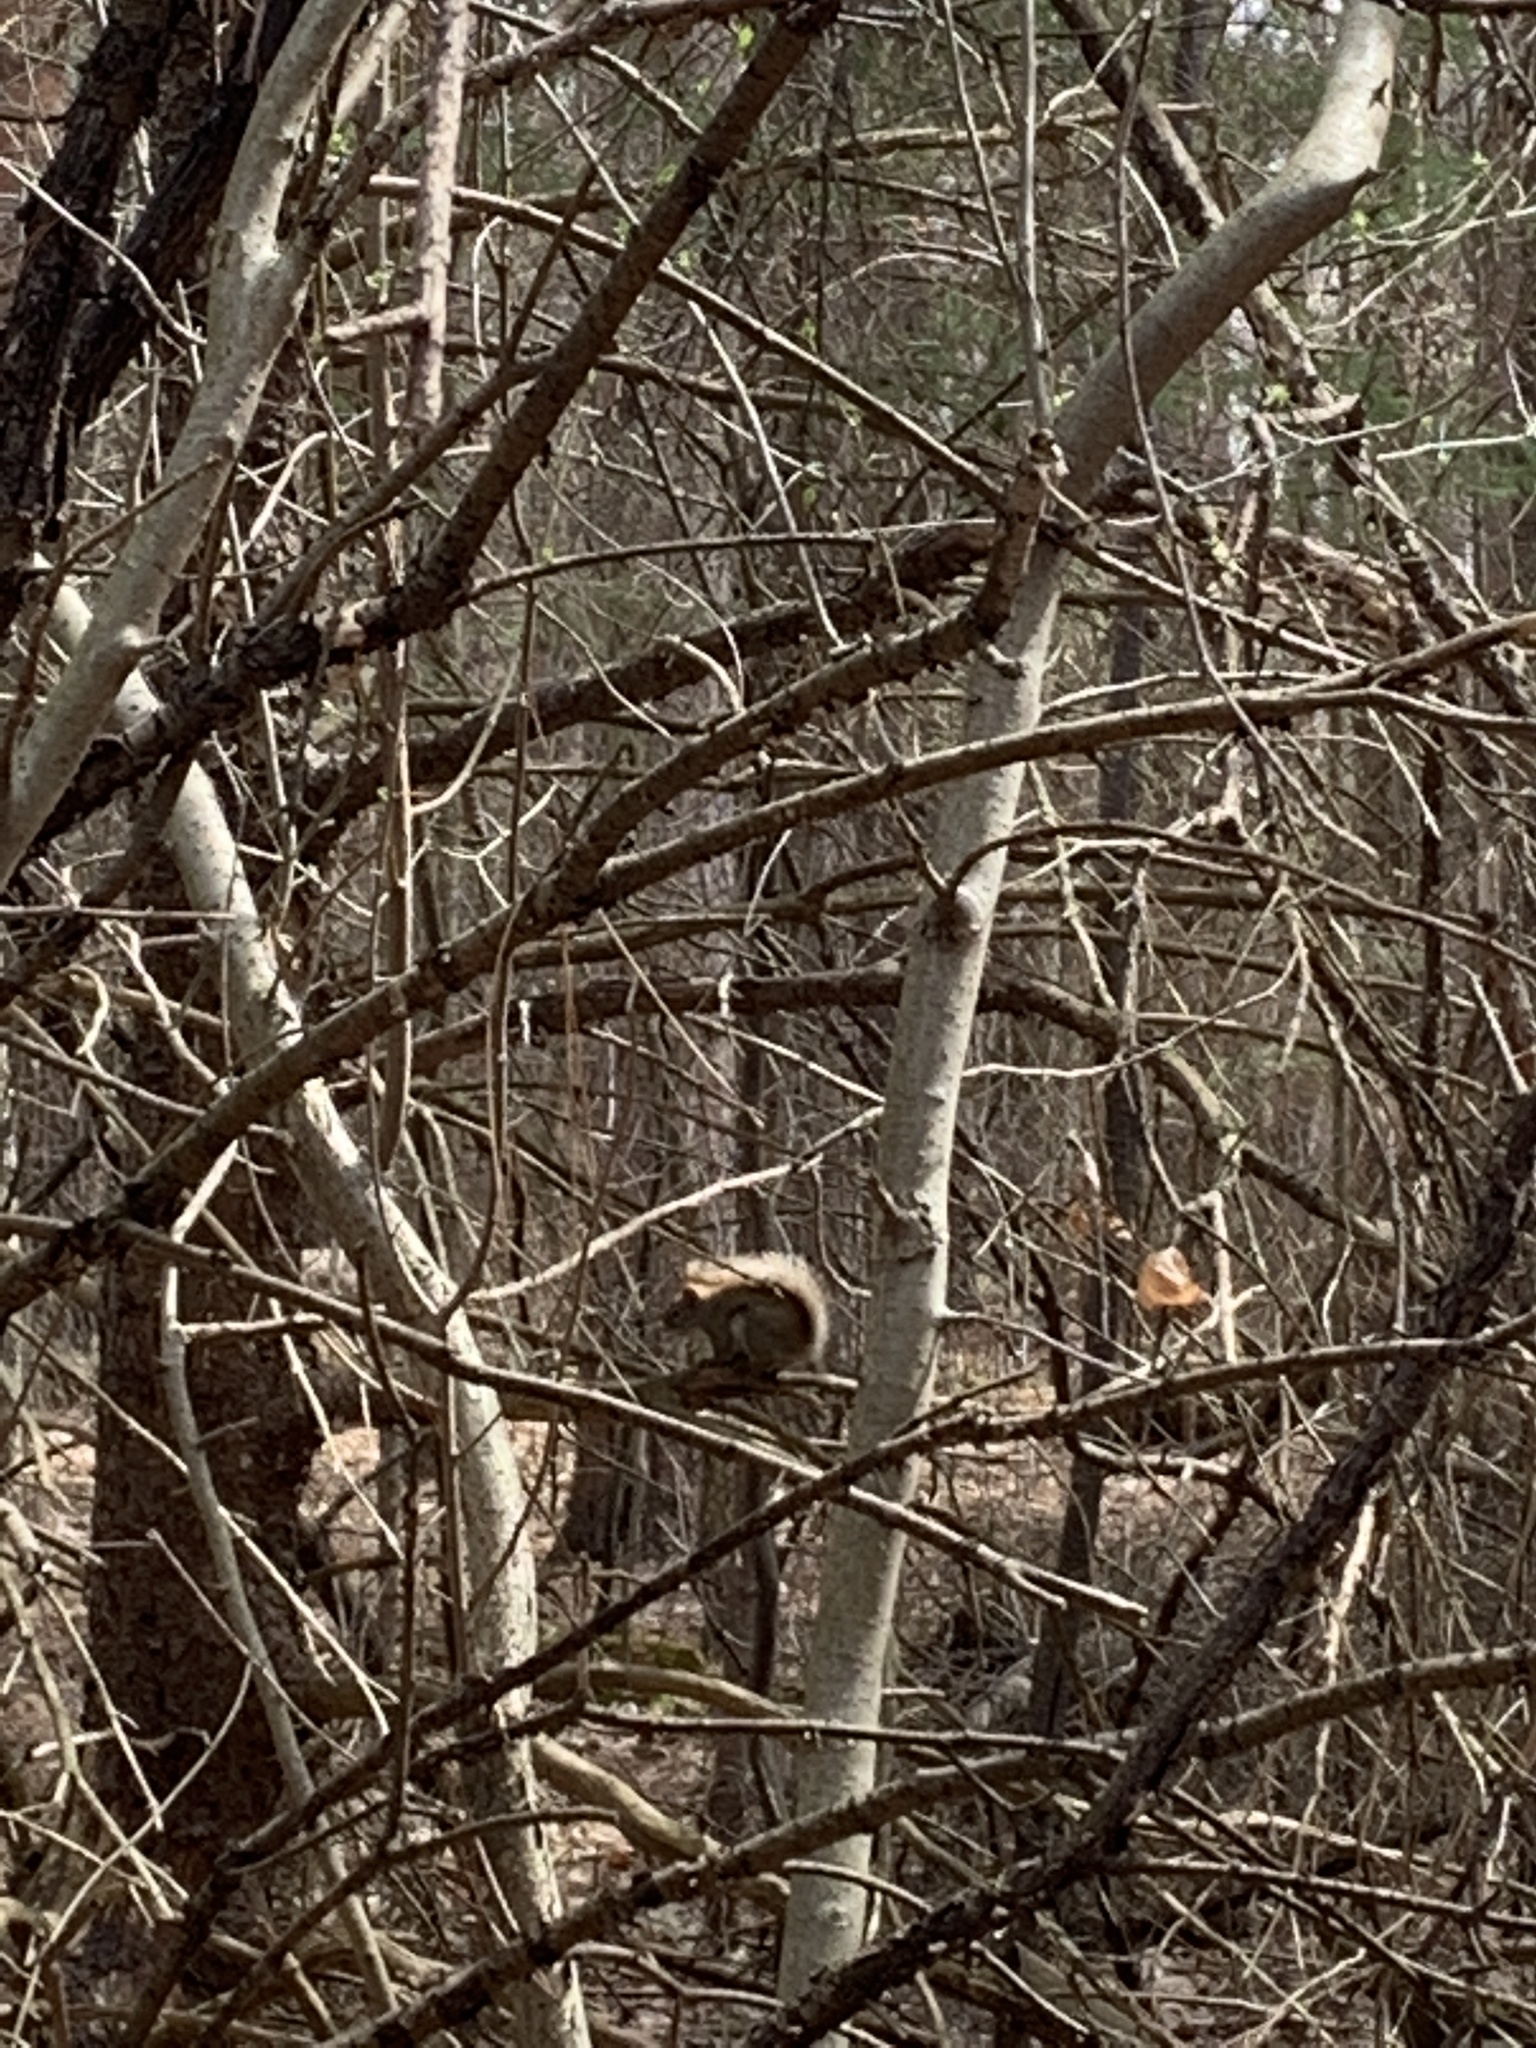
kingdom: Animalia
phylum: Chordata
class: Mammalia
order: Rodentia
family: Sciuridae
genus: Tamiasciurus
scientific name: Tamiasciurus hudsonicus
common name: Red squirrel
